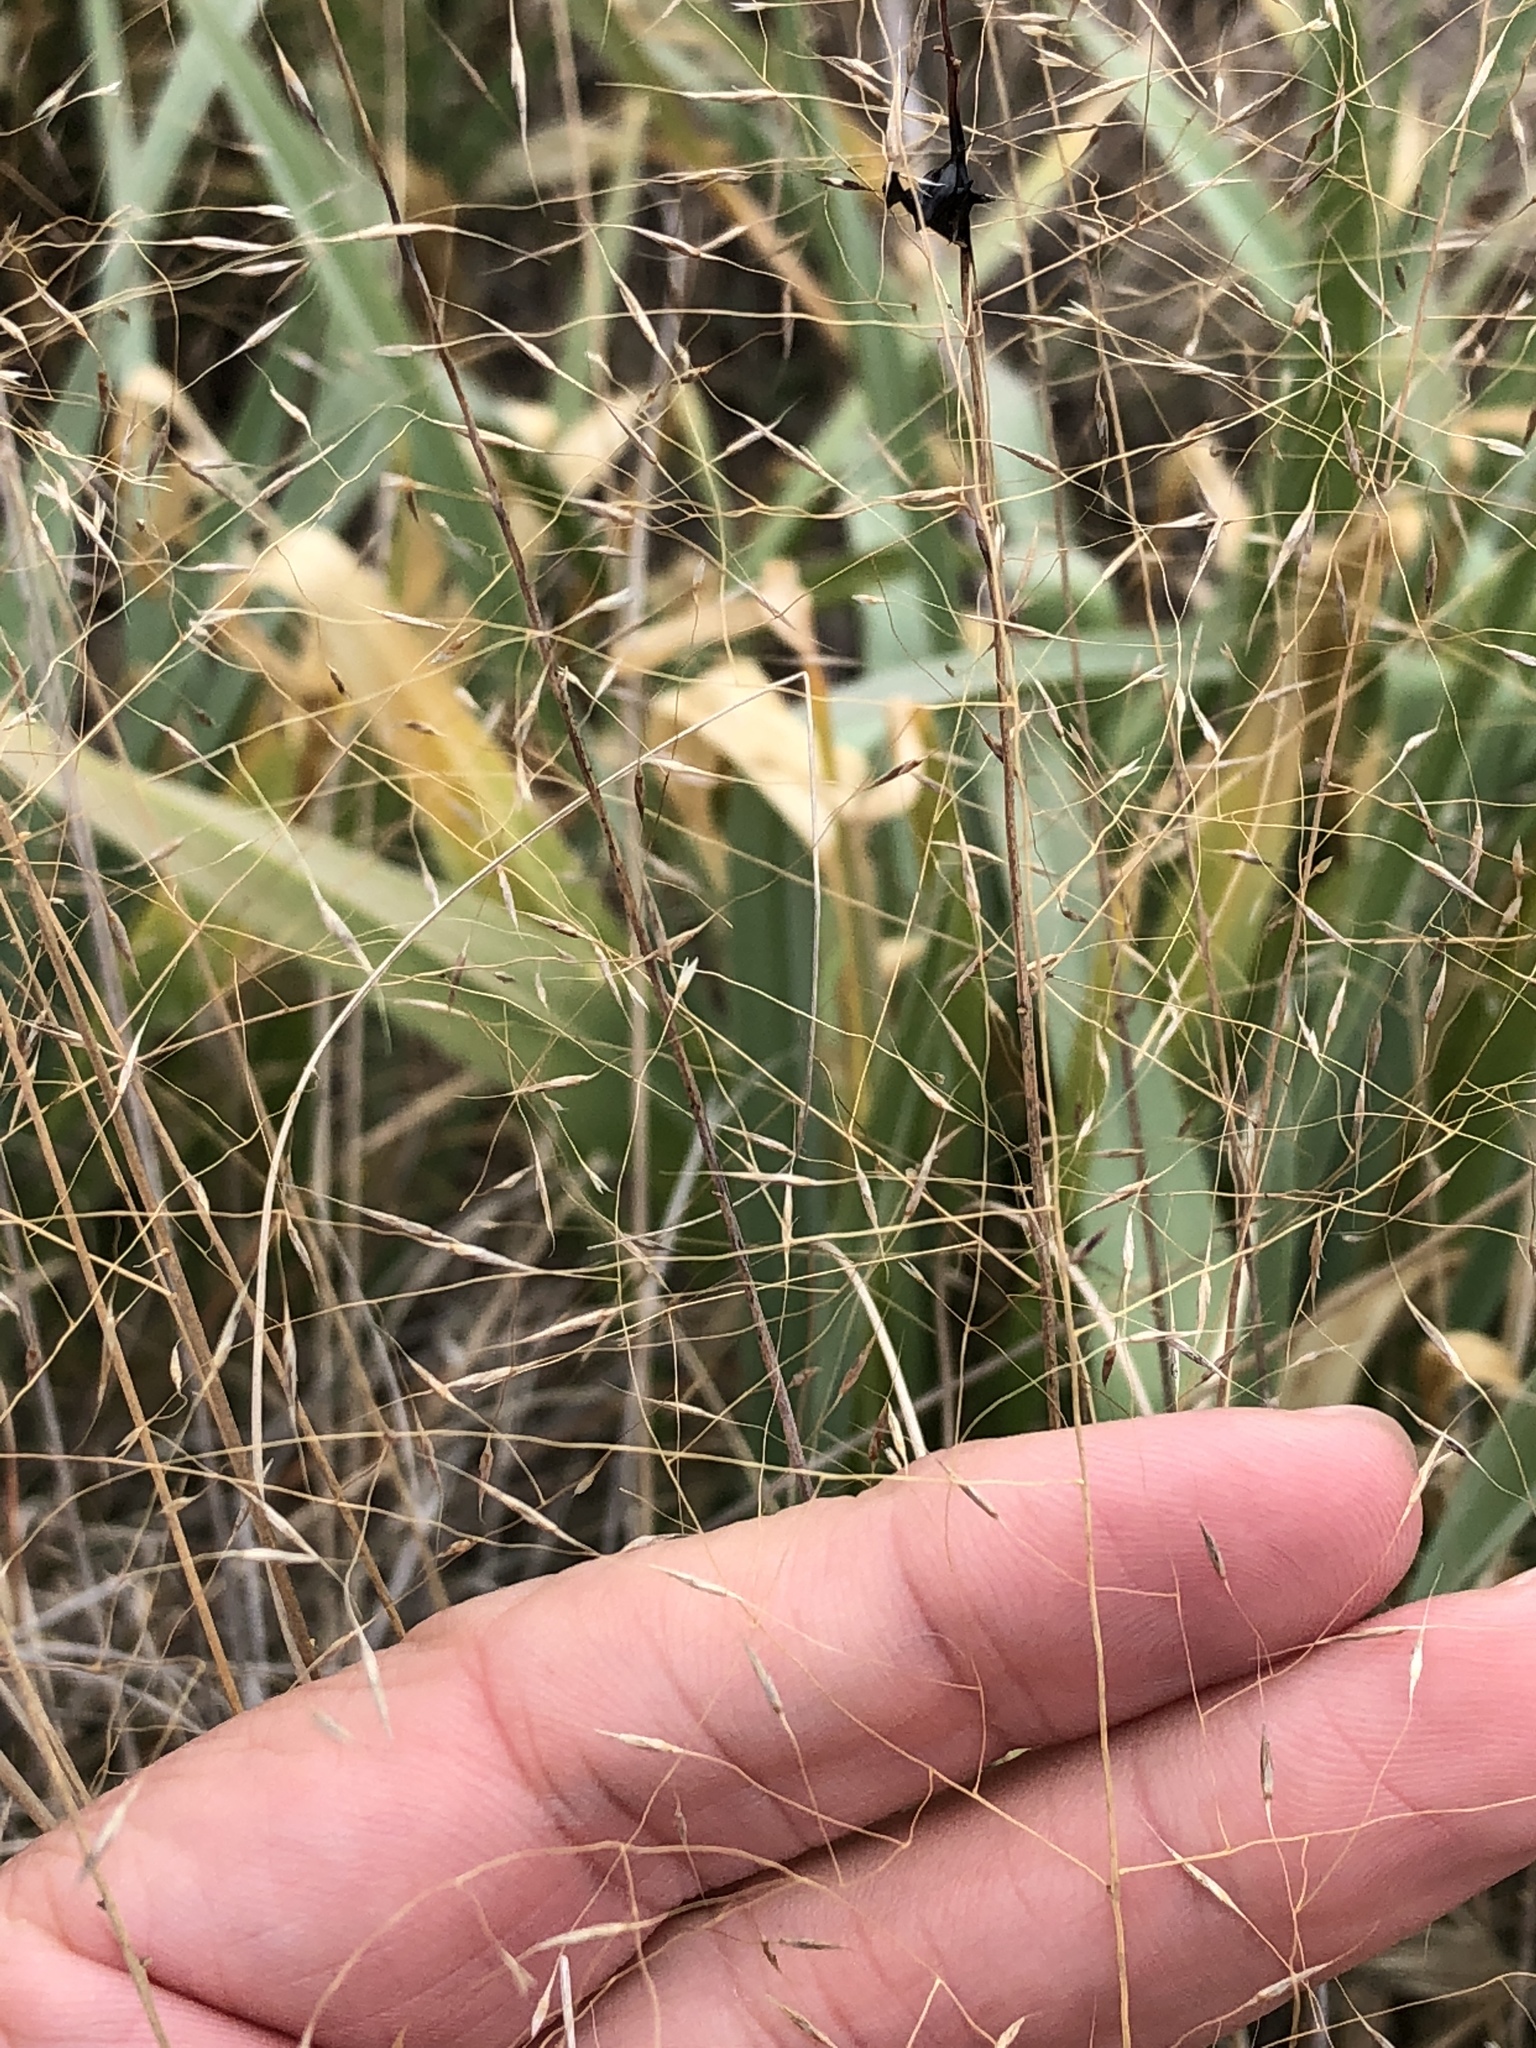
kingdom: Plantae
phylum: Tracheophyta
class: Liliopsida
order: Poales
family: Poaceae
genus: Muhlenbergia
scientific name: Muhlenbergia reverchonii
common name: Seep muhly
